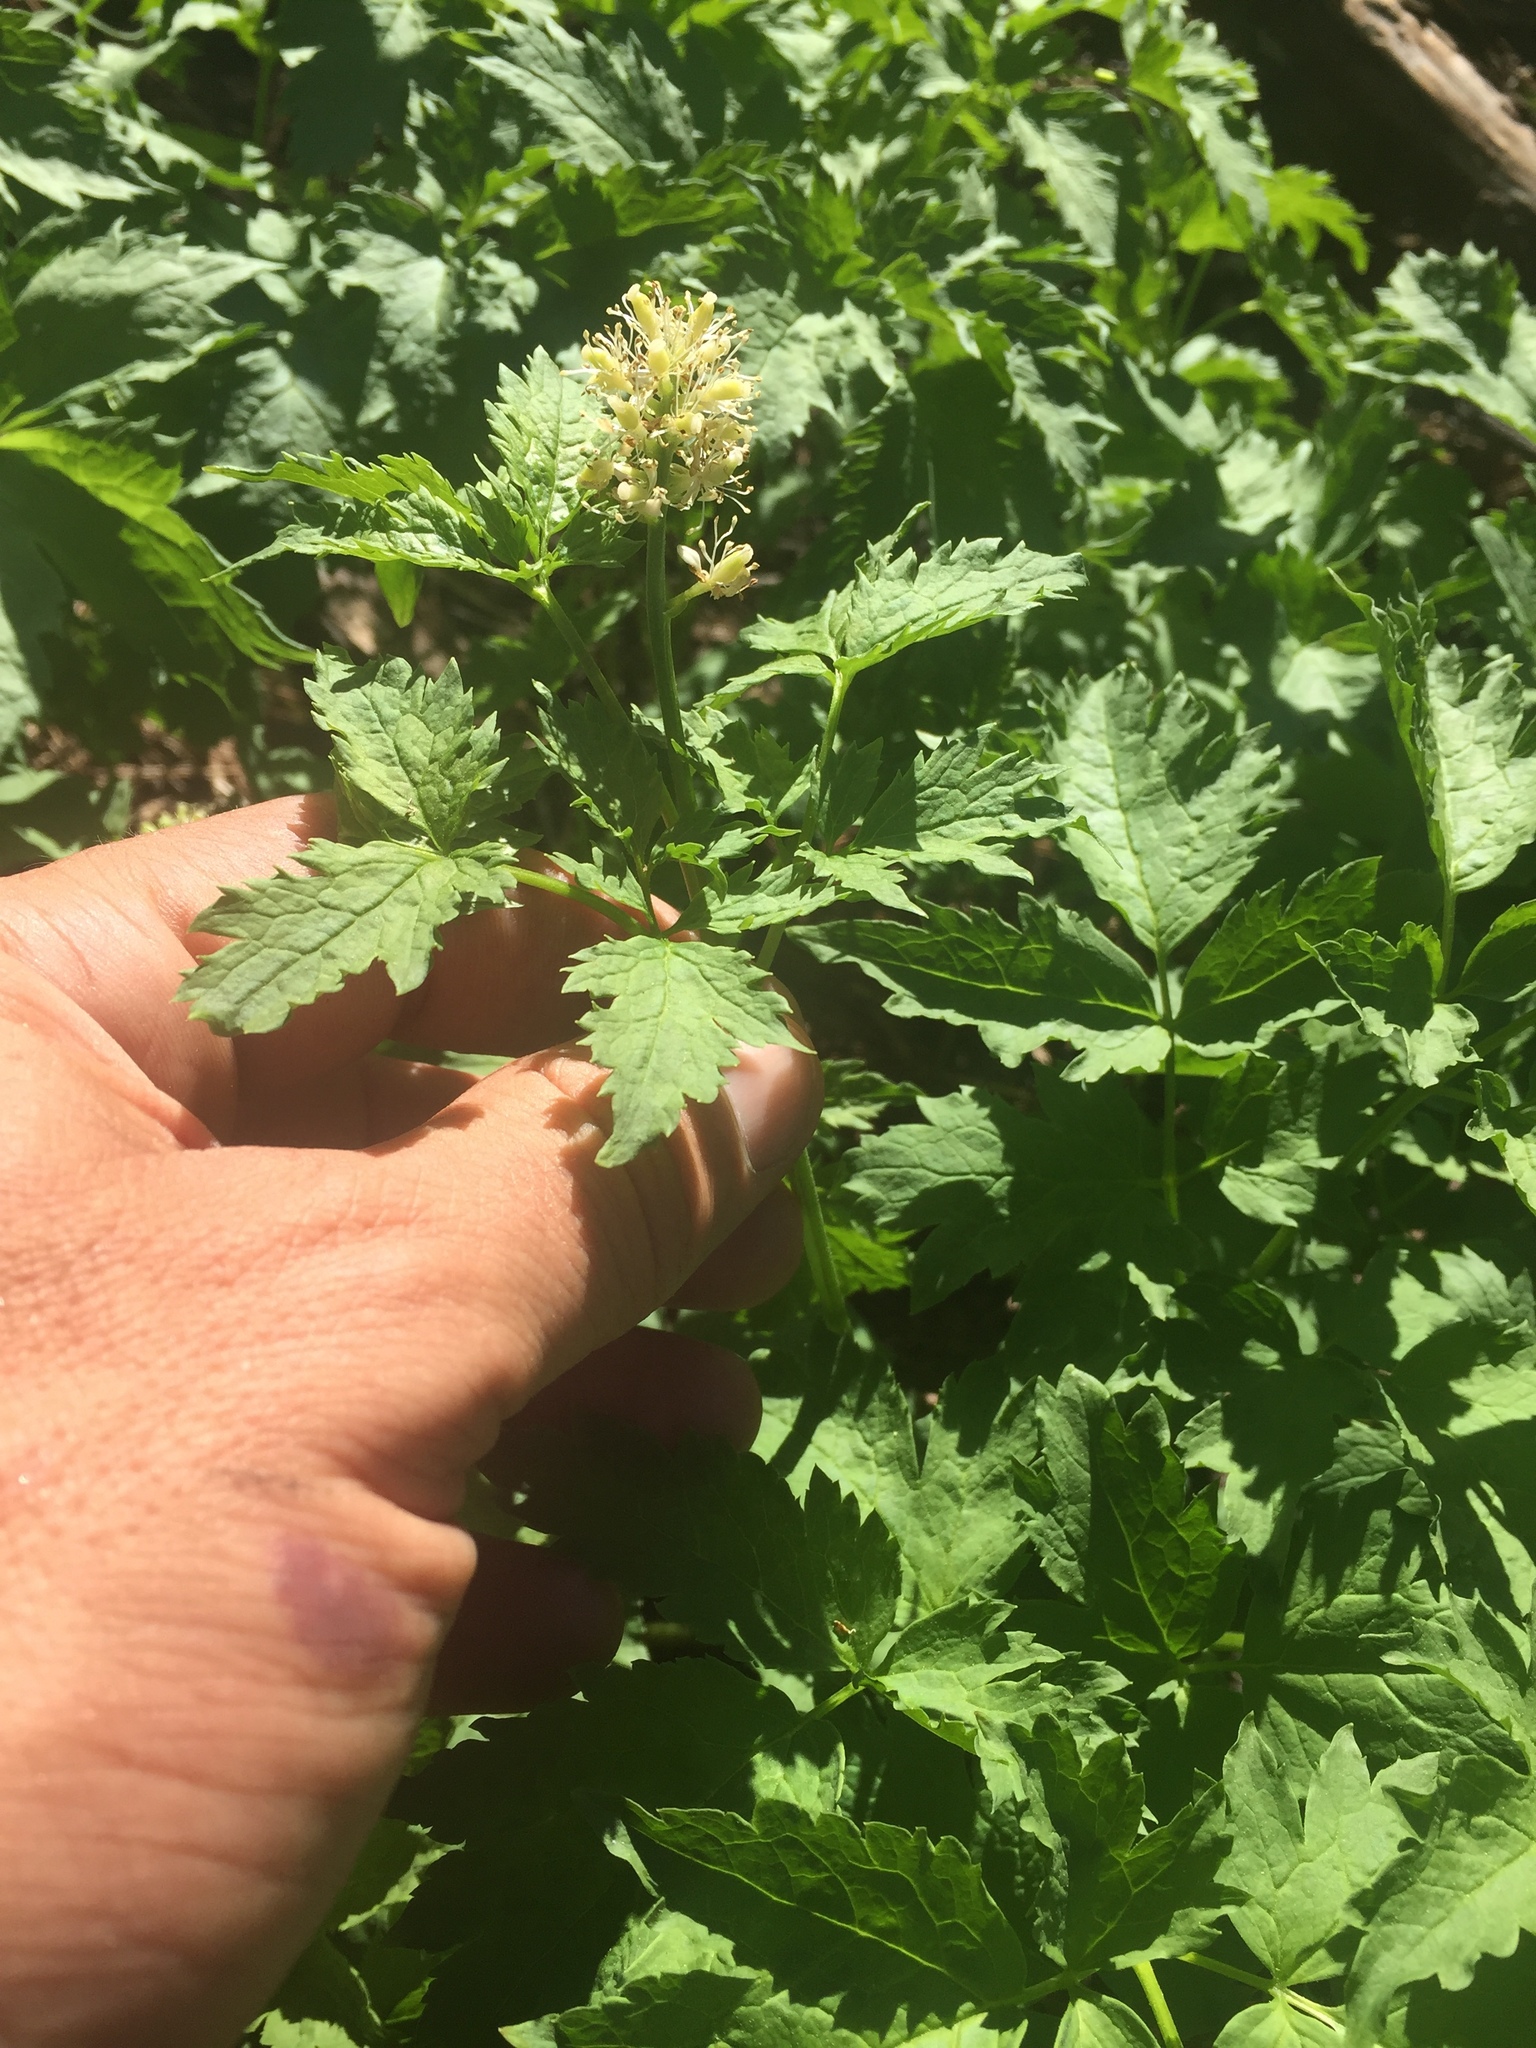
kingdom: Plantae
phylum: Tracheophyta
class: Magnoliopsida
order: Ranunculales
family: Ranunculaceae
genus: Actaea
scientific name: Actaea rubra
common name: Red baneberry
